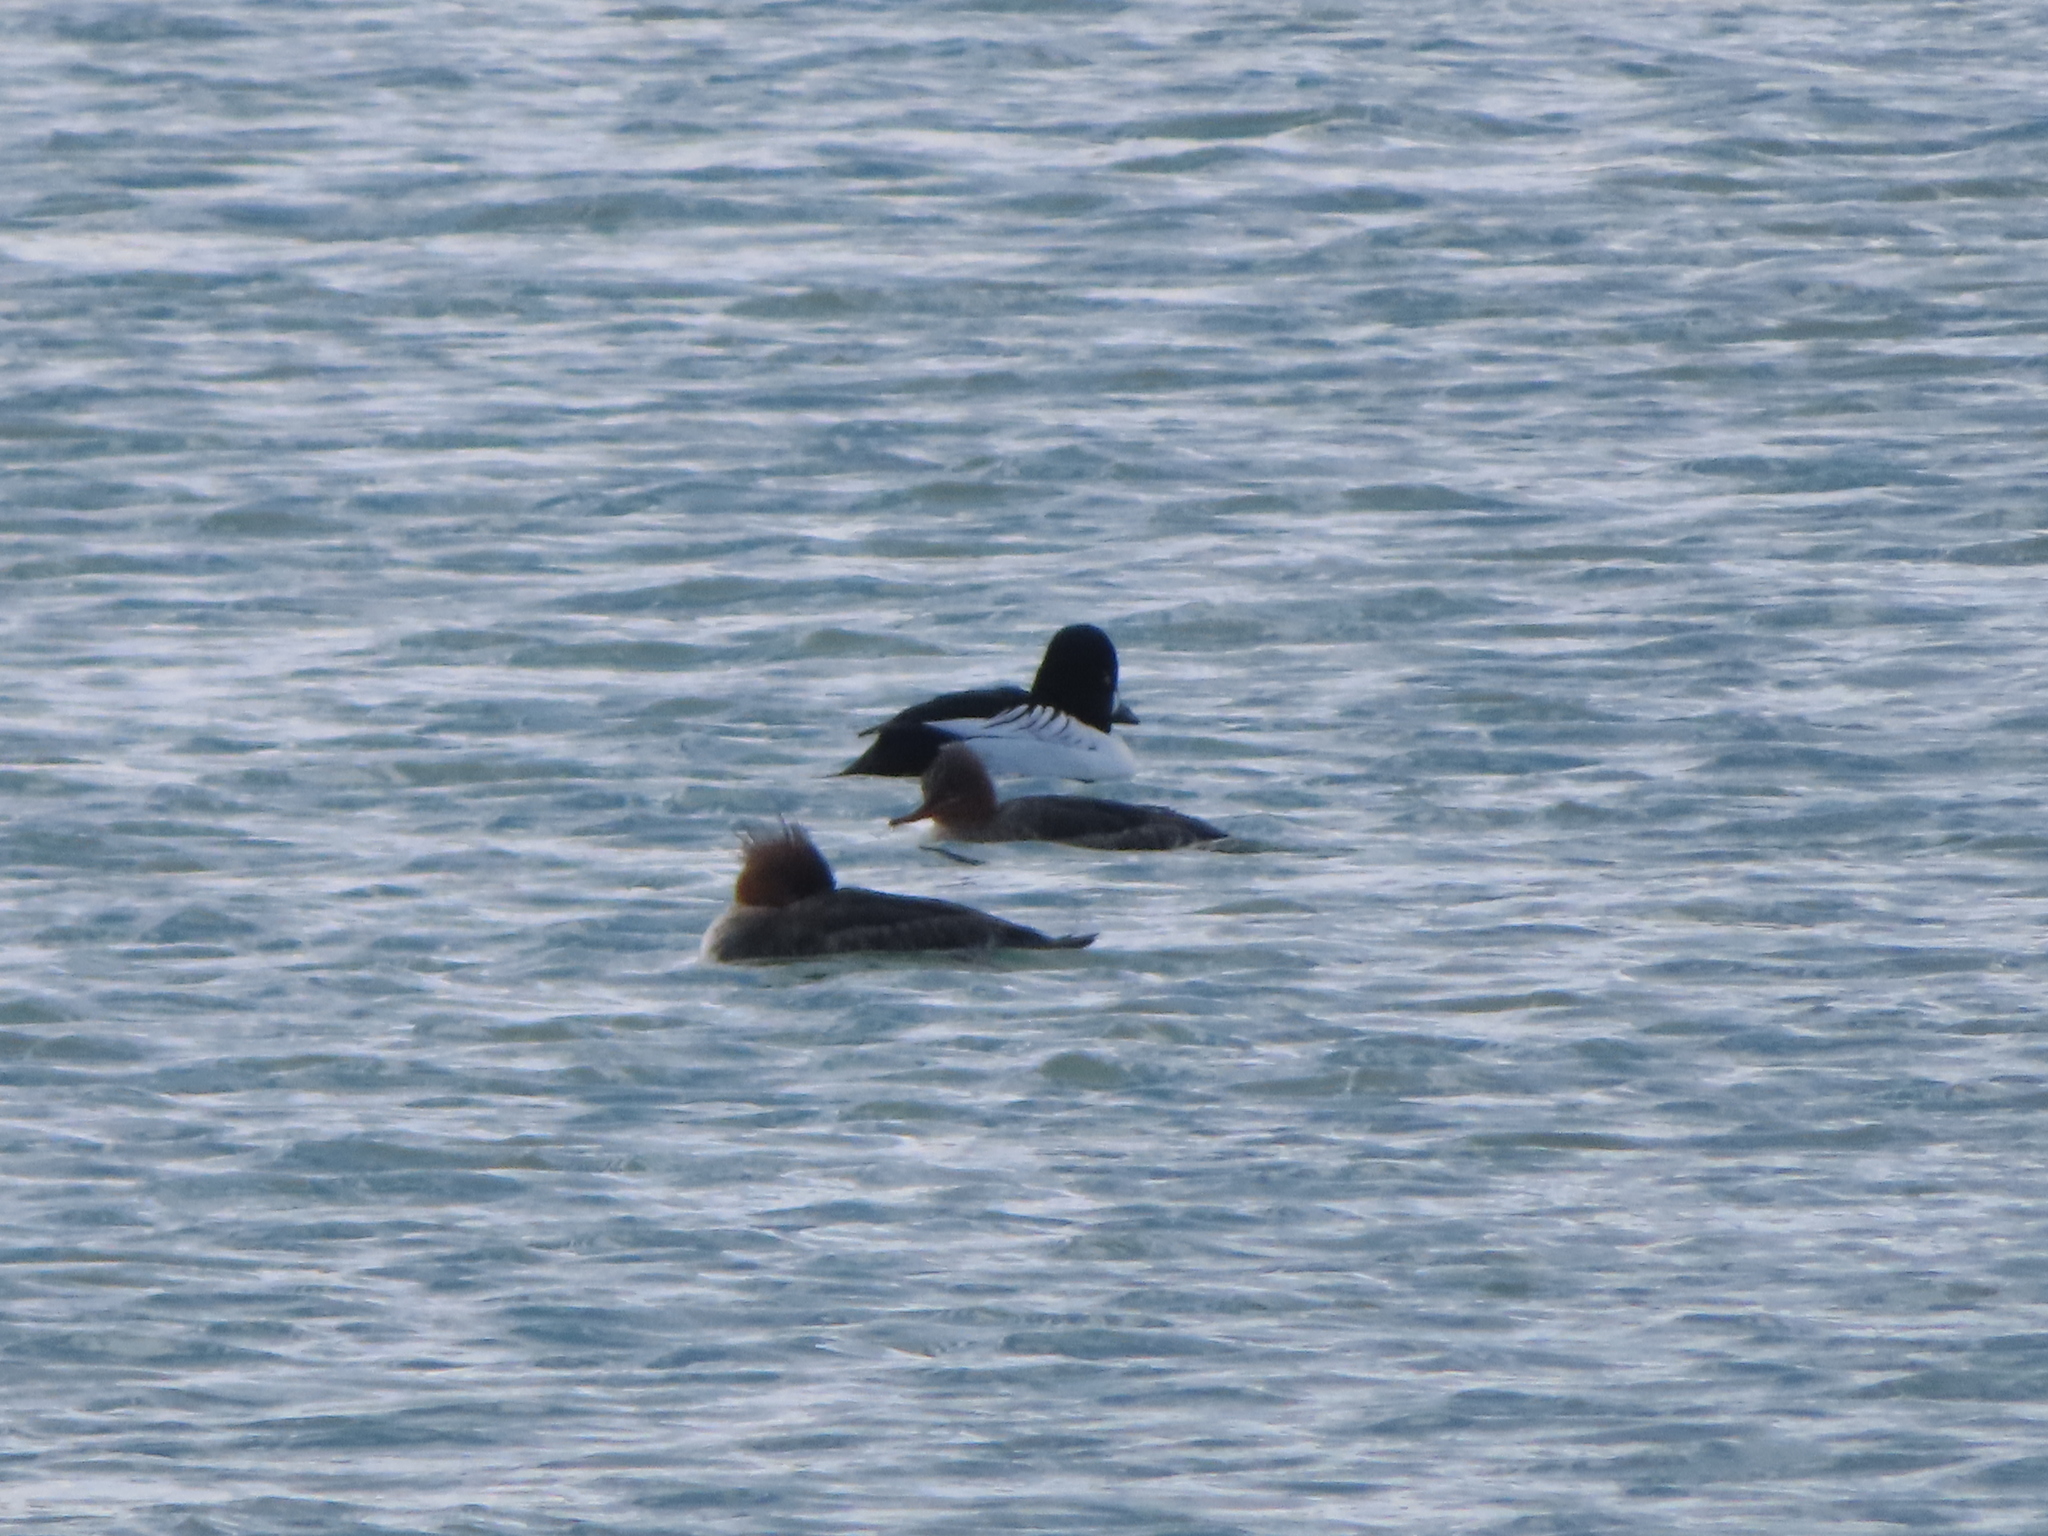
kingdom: Animalia
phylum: Chordata
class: Aves
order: Anseriformes
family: Anatidae
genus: Bucephala
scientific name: Bucephala clangula
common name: Common goldeneye
